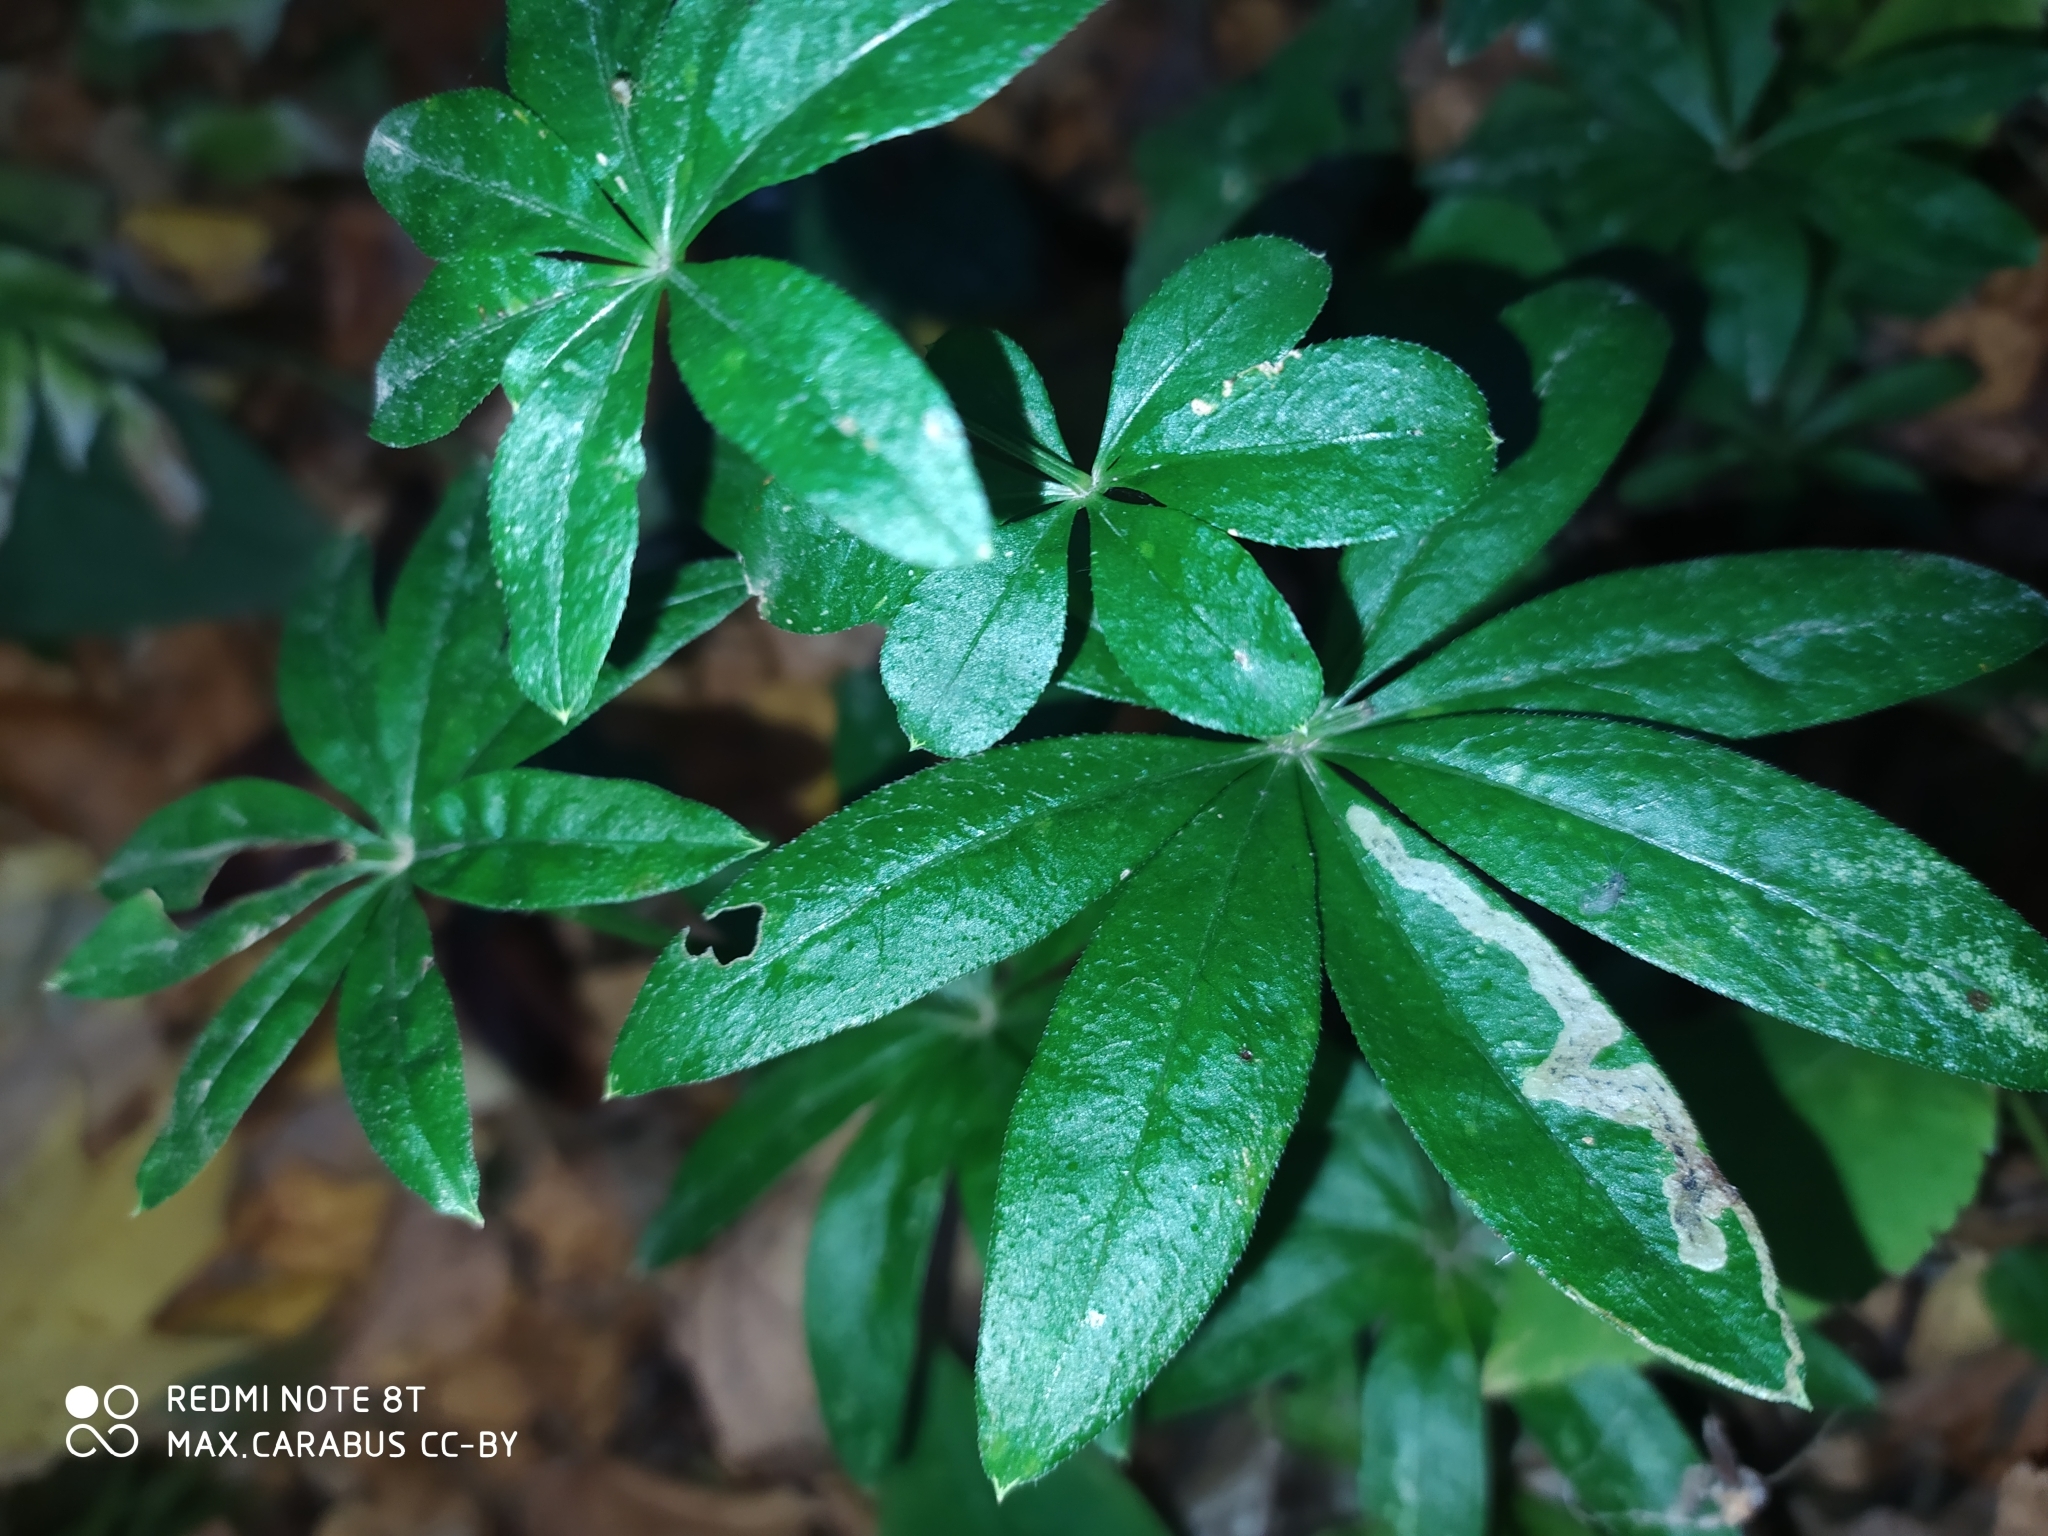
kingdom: Plantae
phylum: Tracheophyta
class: Magnoliopsida
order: Gentianales
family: Rubiaceae
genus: Galium
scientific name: Galium odoratum
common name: Sweet woodruff
